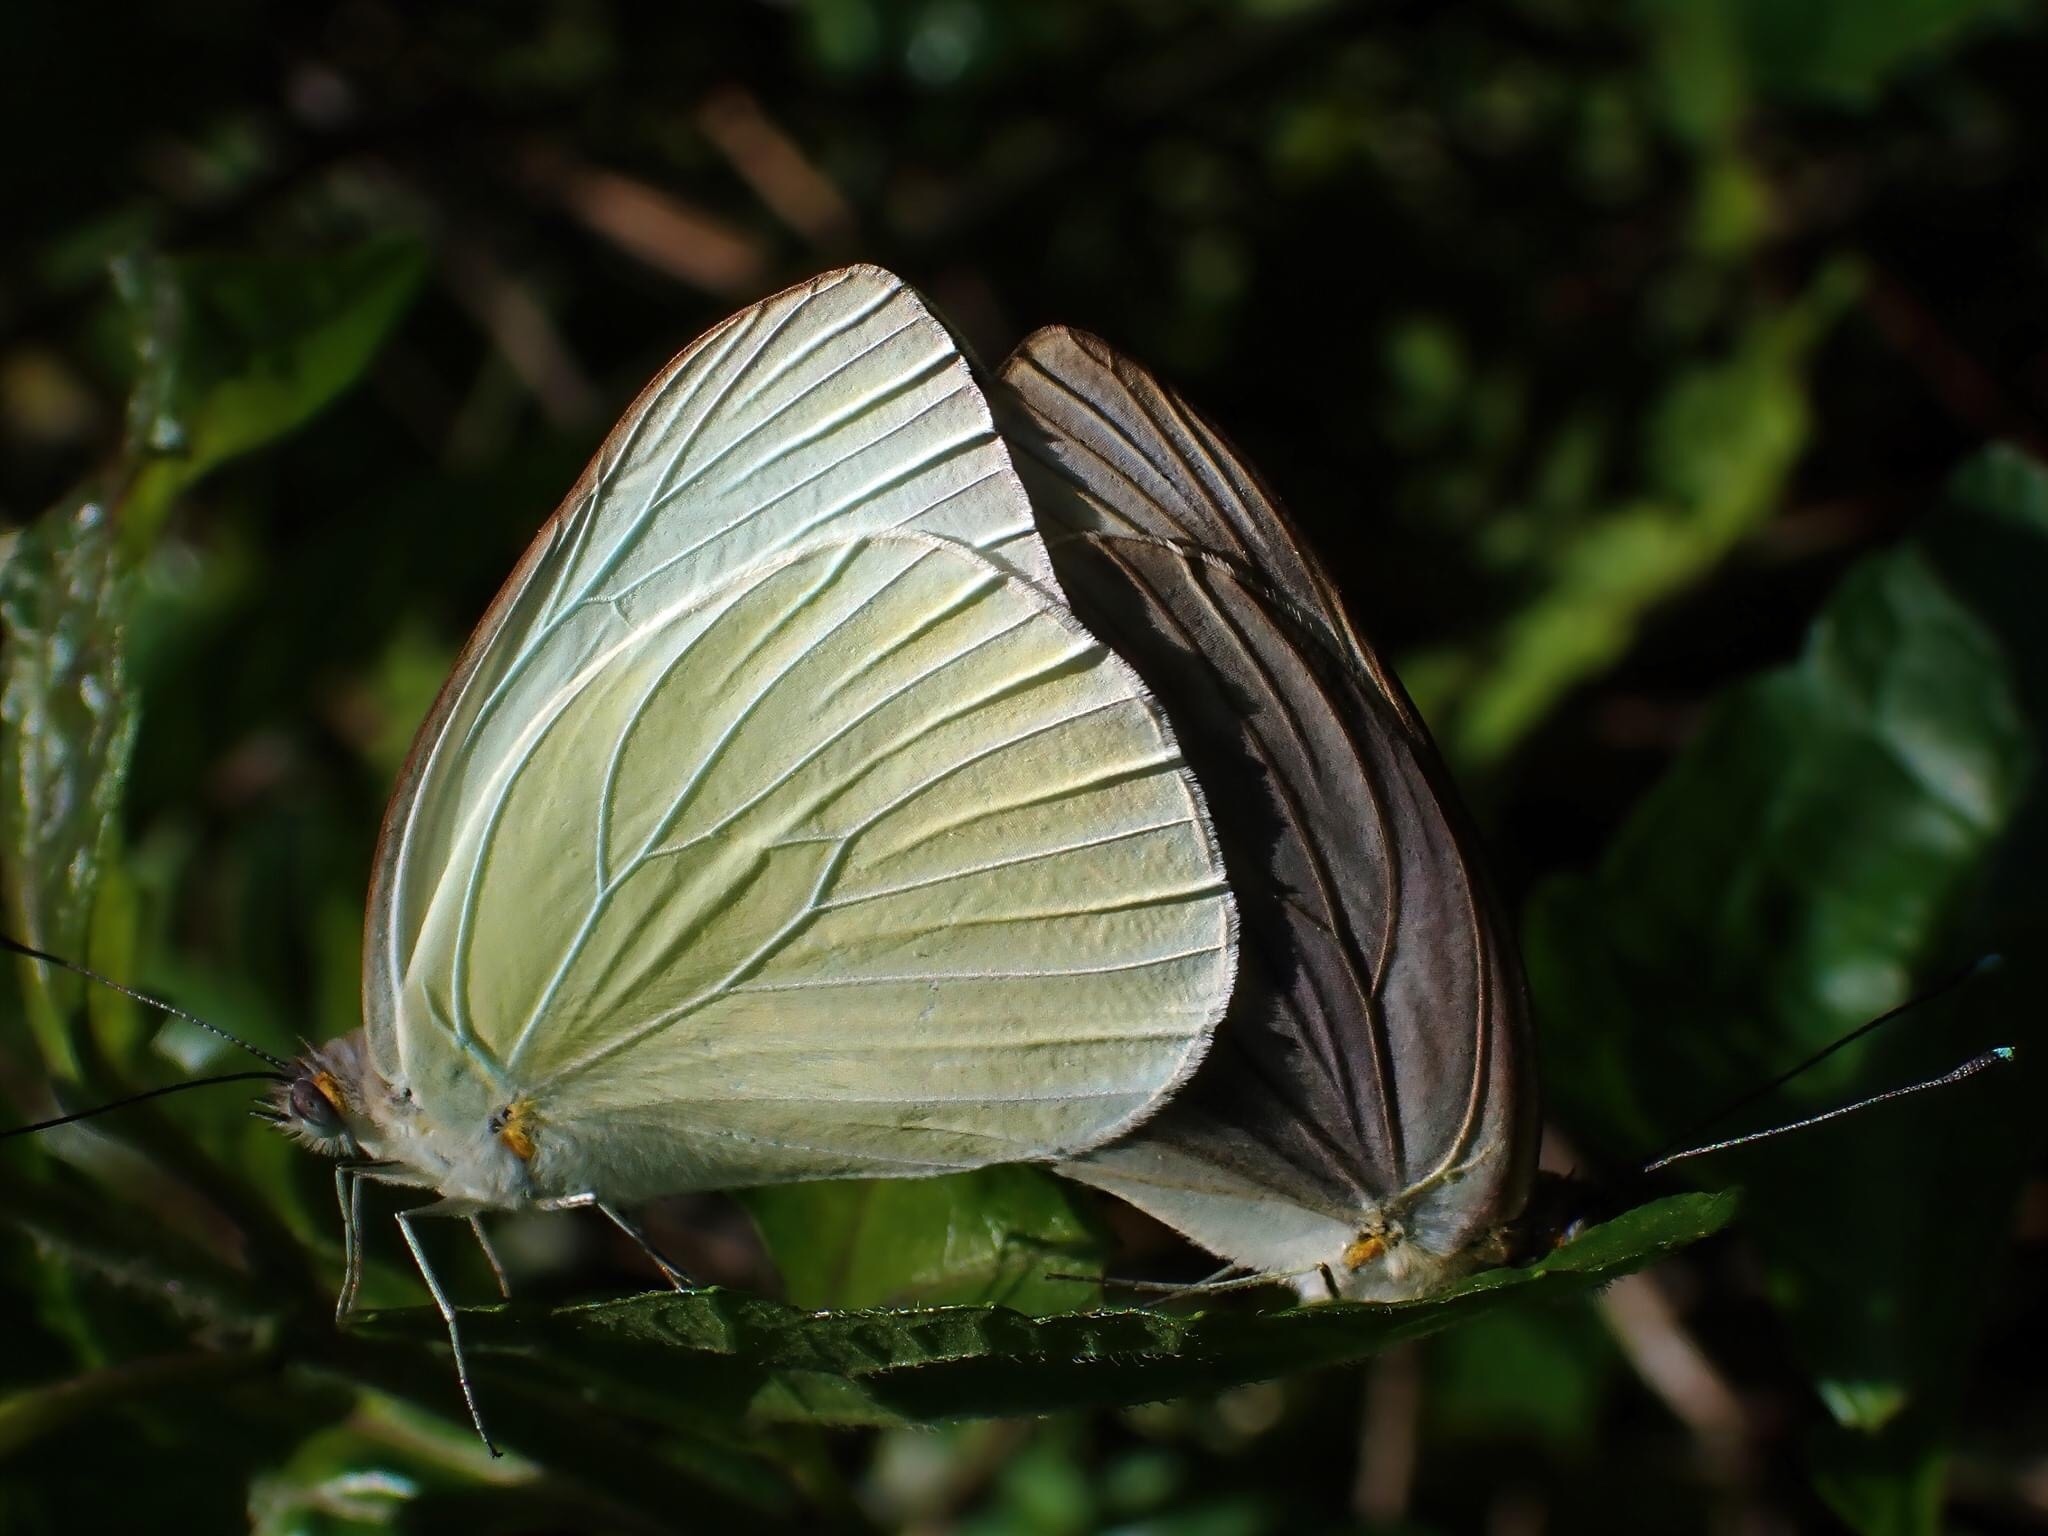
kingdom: Animalia
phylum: Arthropoda
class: Insecta
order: Lepidoptera
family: Pieridae
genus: Ascia
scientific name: Ascia monuste
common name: Great southern white
